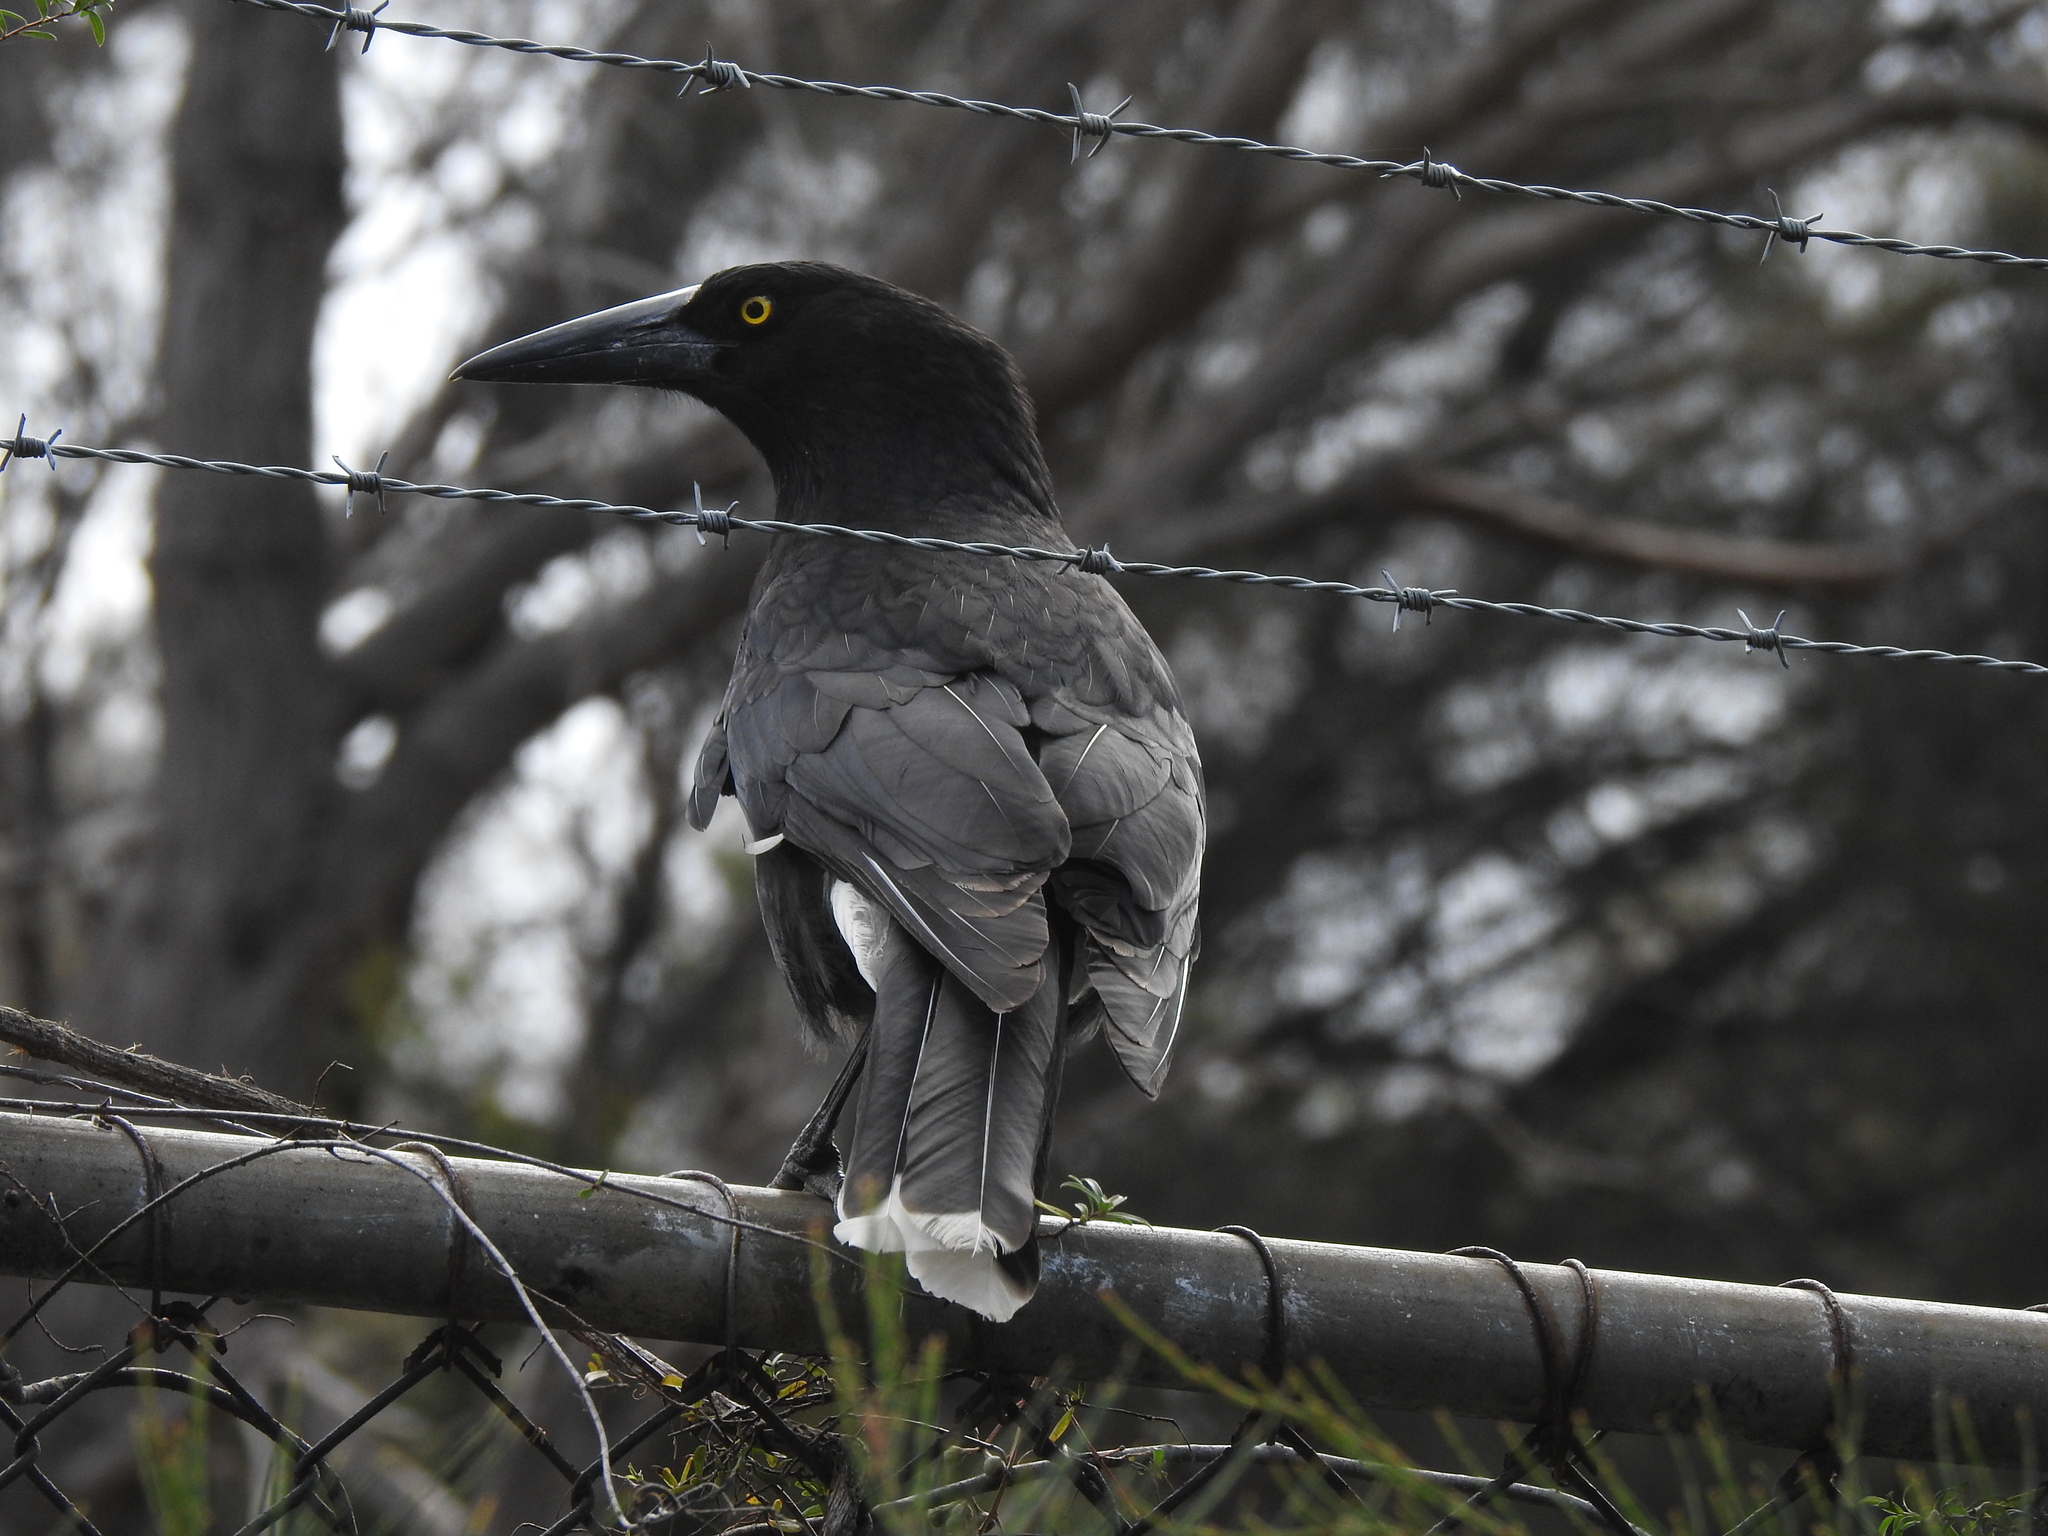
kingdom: Animalia
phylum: Chordata
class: Aves
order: Passeriformes
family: Cracticidae
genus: Strepera
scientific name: Strepera fuliginosa
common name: Black currawong
